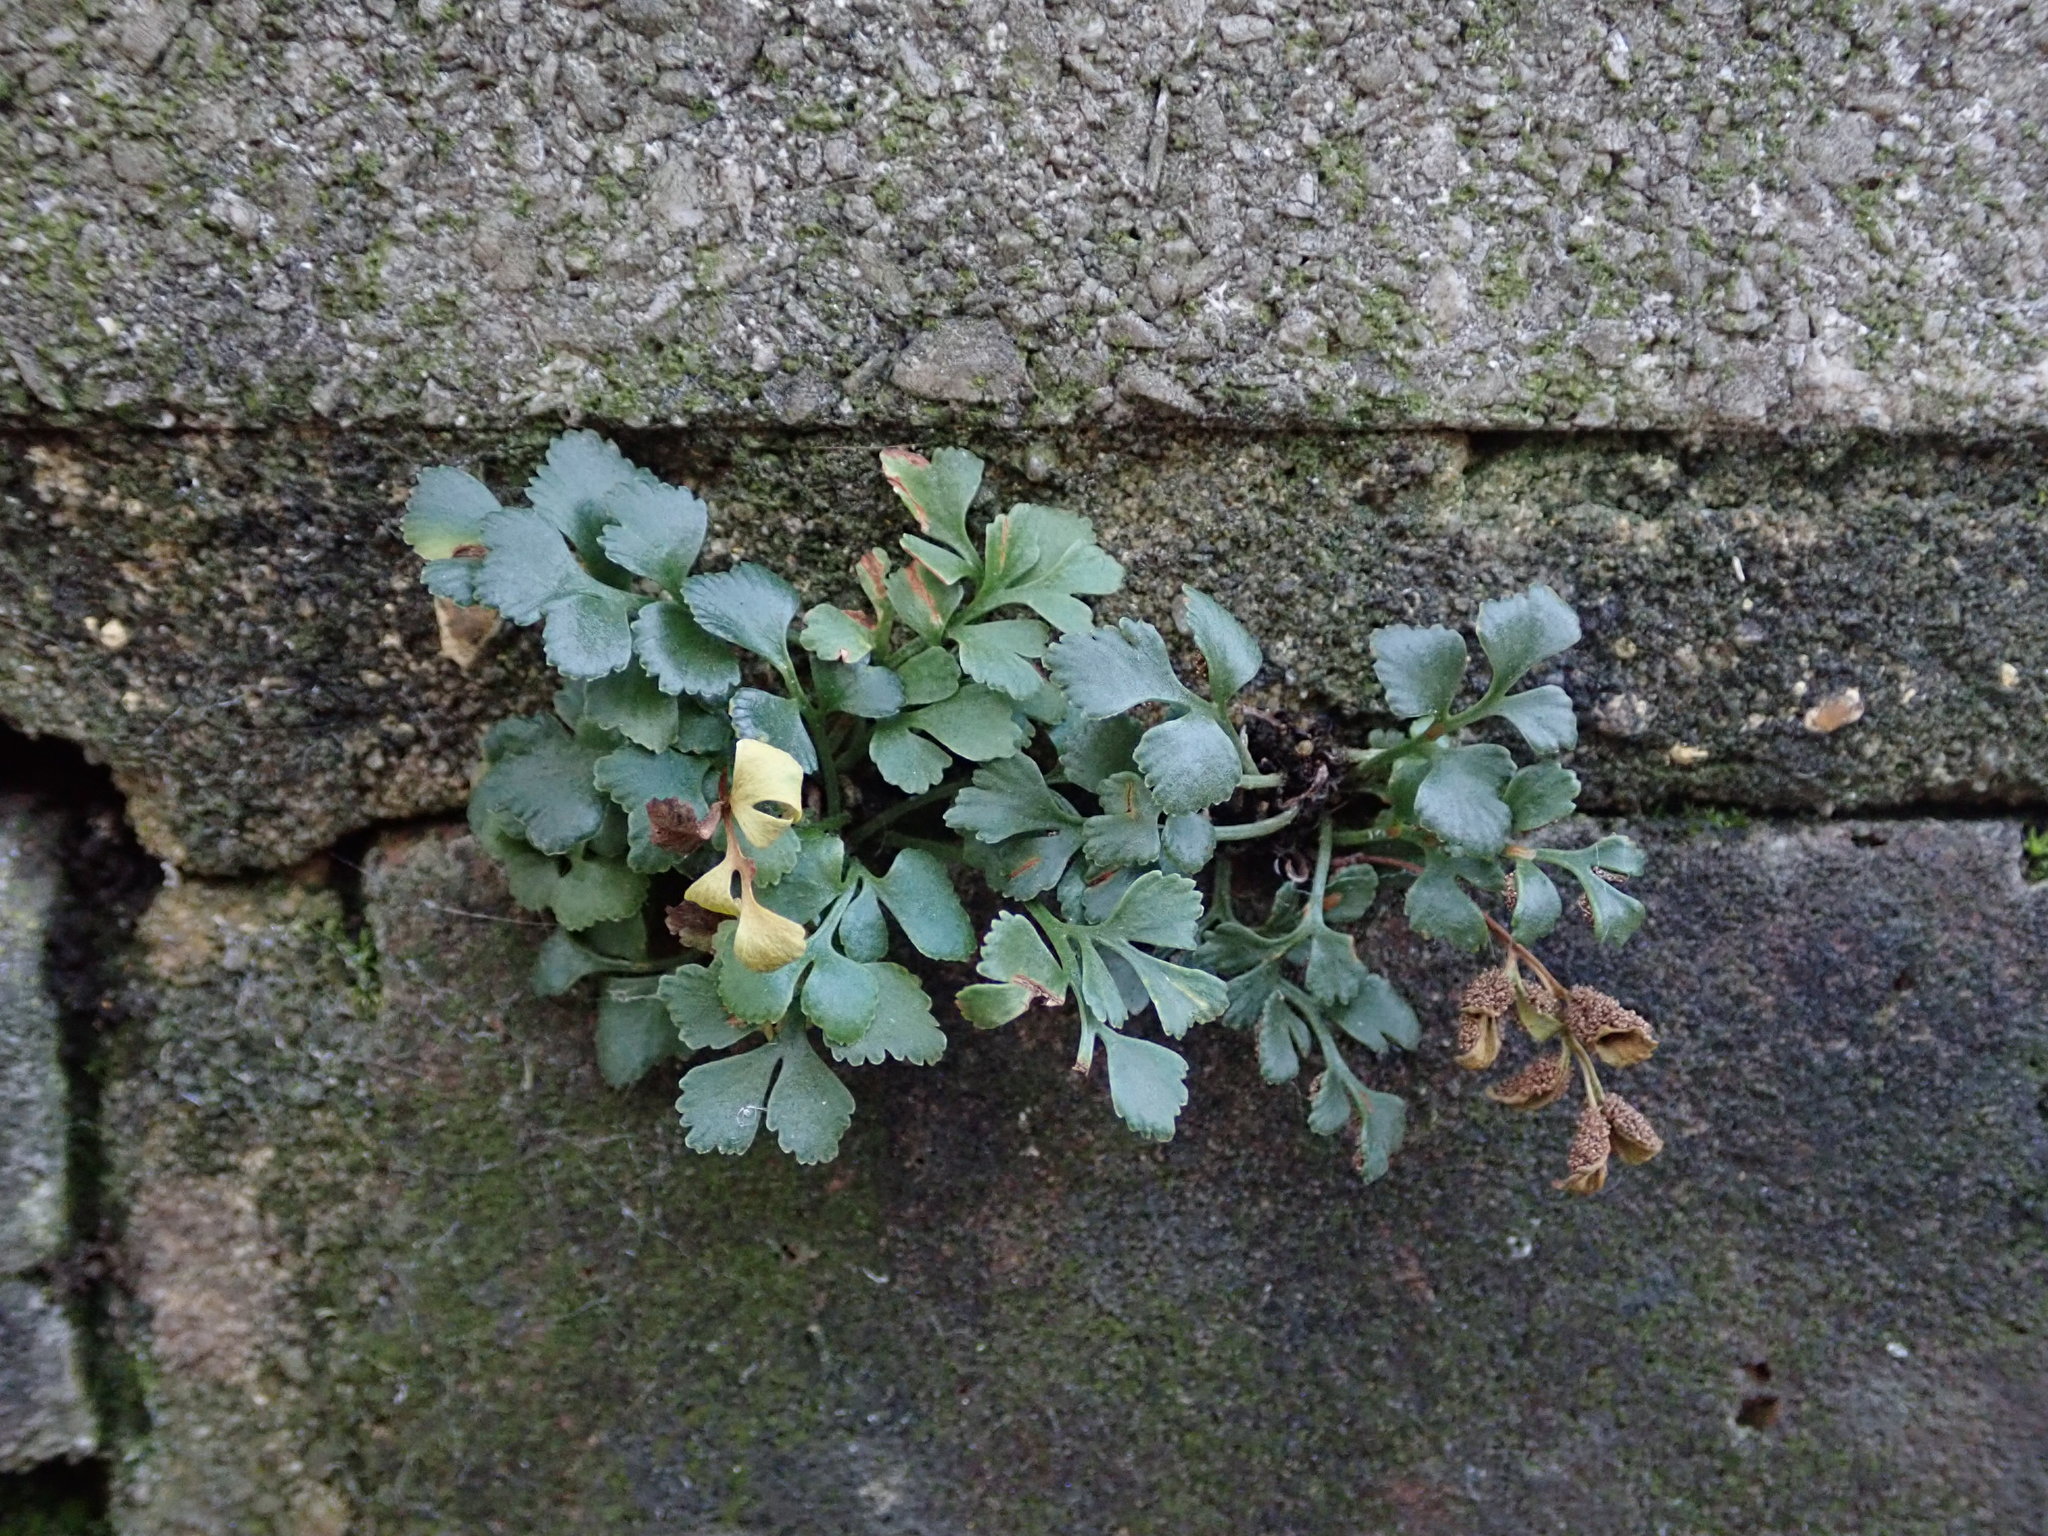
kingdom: Plantae
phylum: Tracheophyta
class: Polypodiopsida
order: Polypodiales
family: Aspleniaceae
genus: Asplenium
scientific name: Asplenium ruta-muraria
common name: Wall-rue
